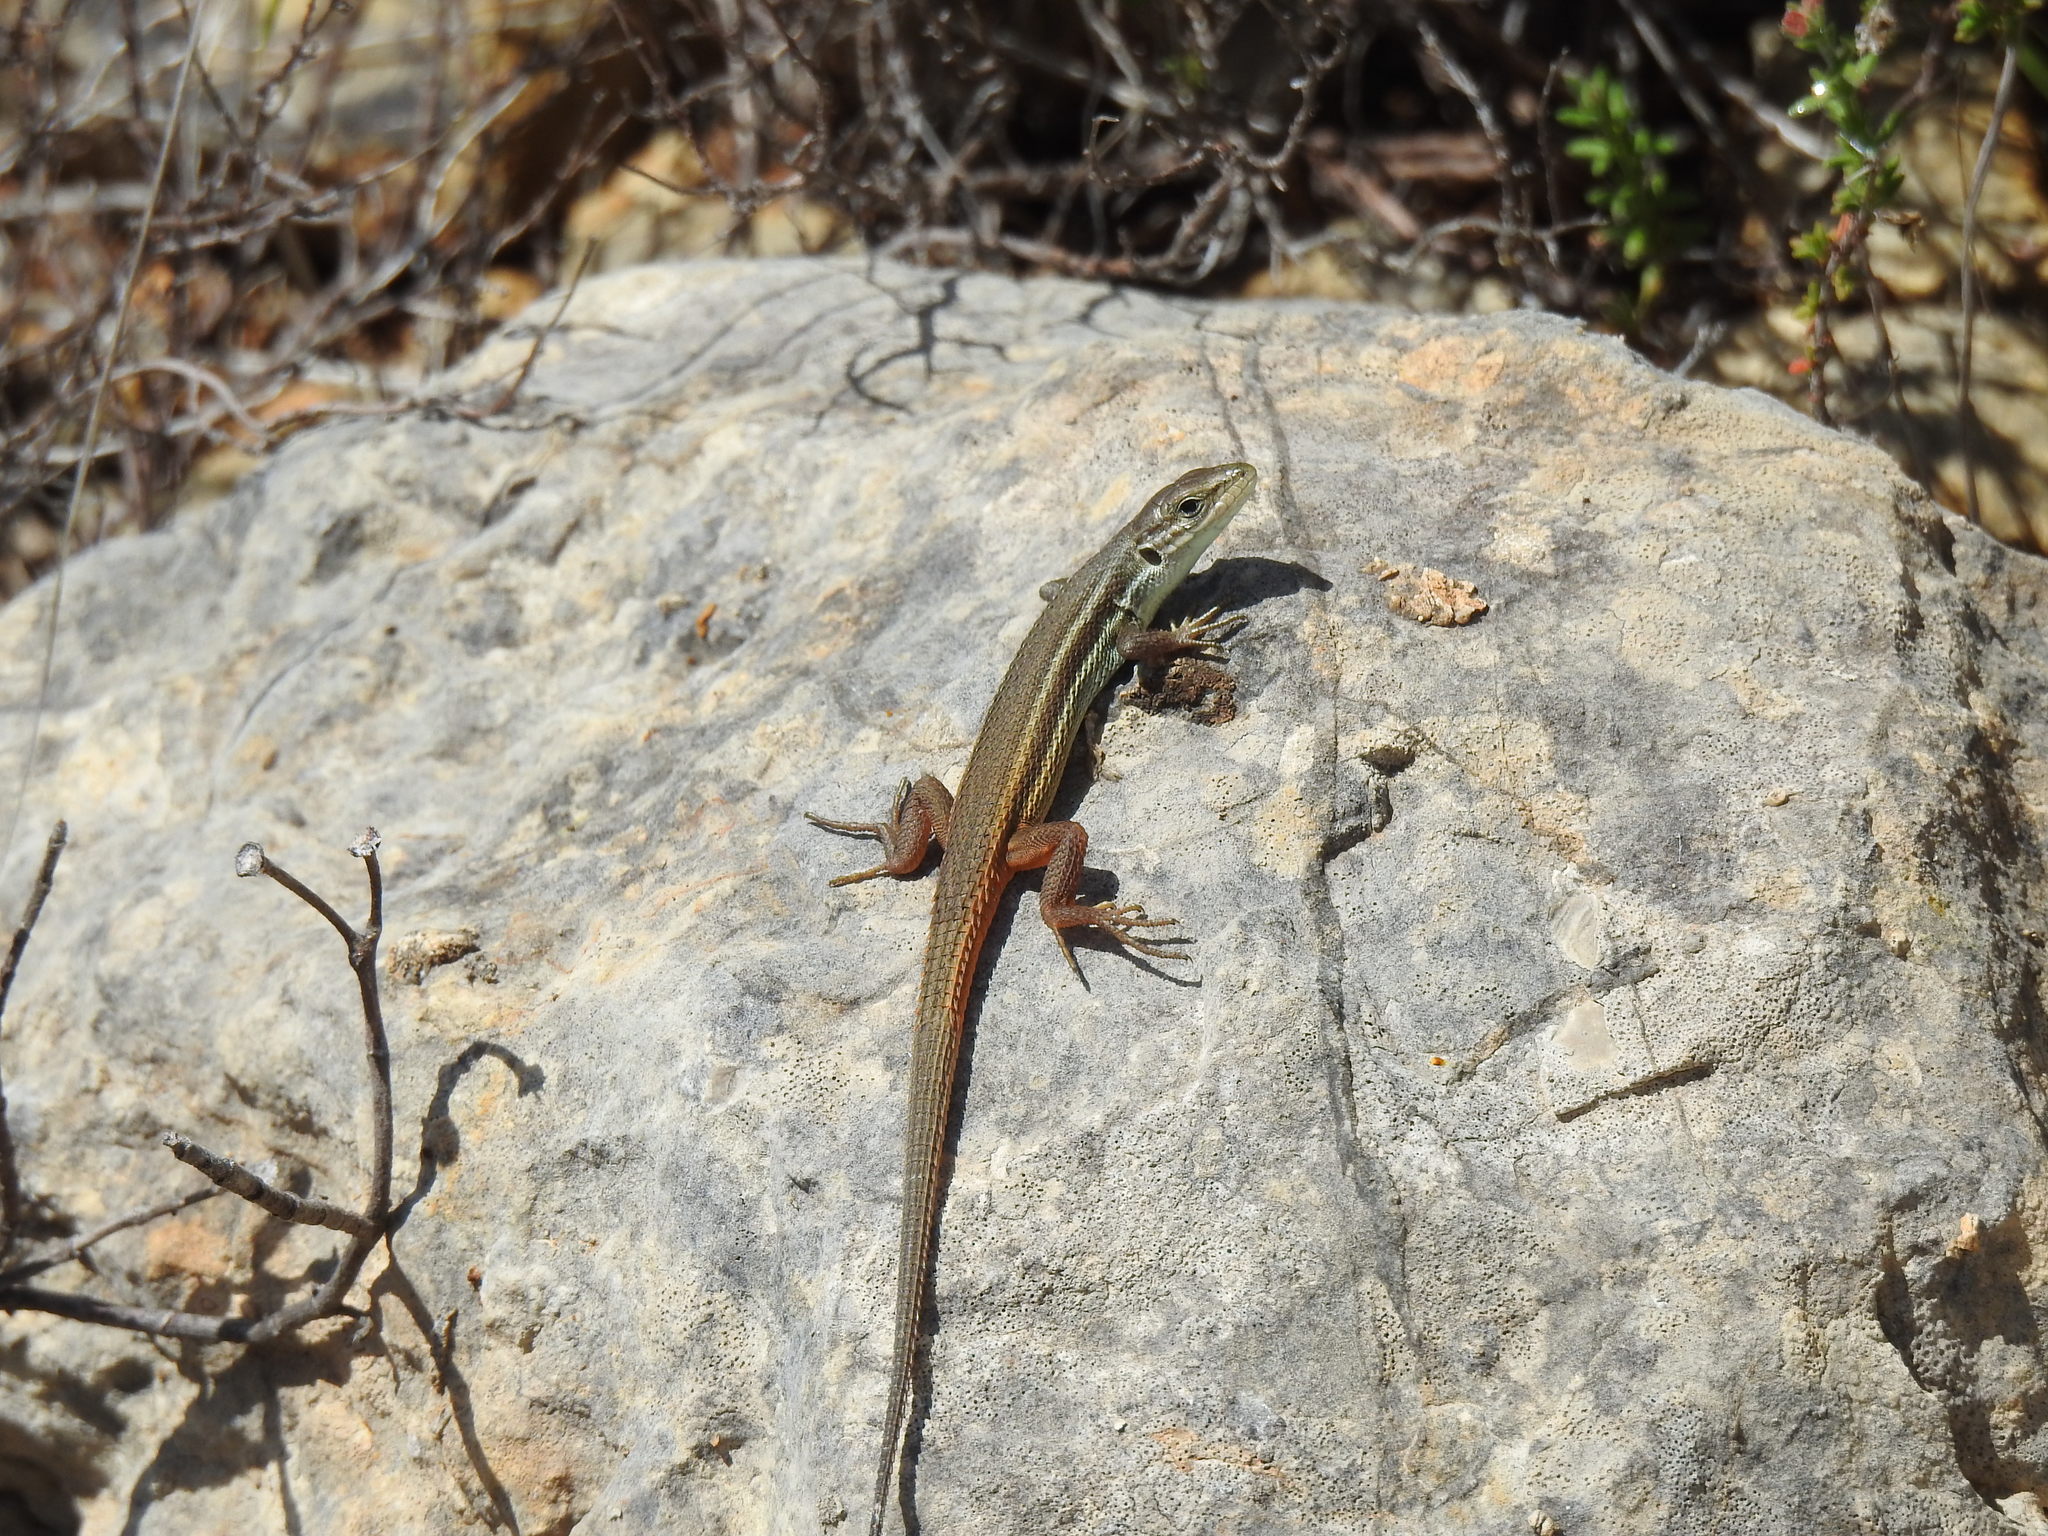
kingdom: Animalia
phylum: Chordata
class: Squamata
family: Lacertidae
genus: Psammodromus
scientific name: Psammodromus algirus
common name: Algerian psammodromus
